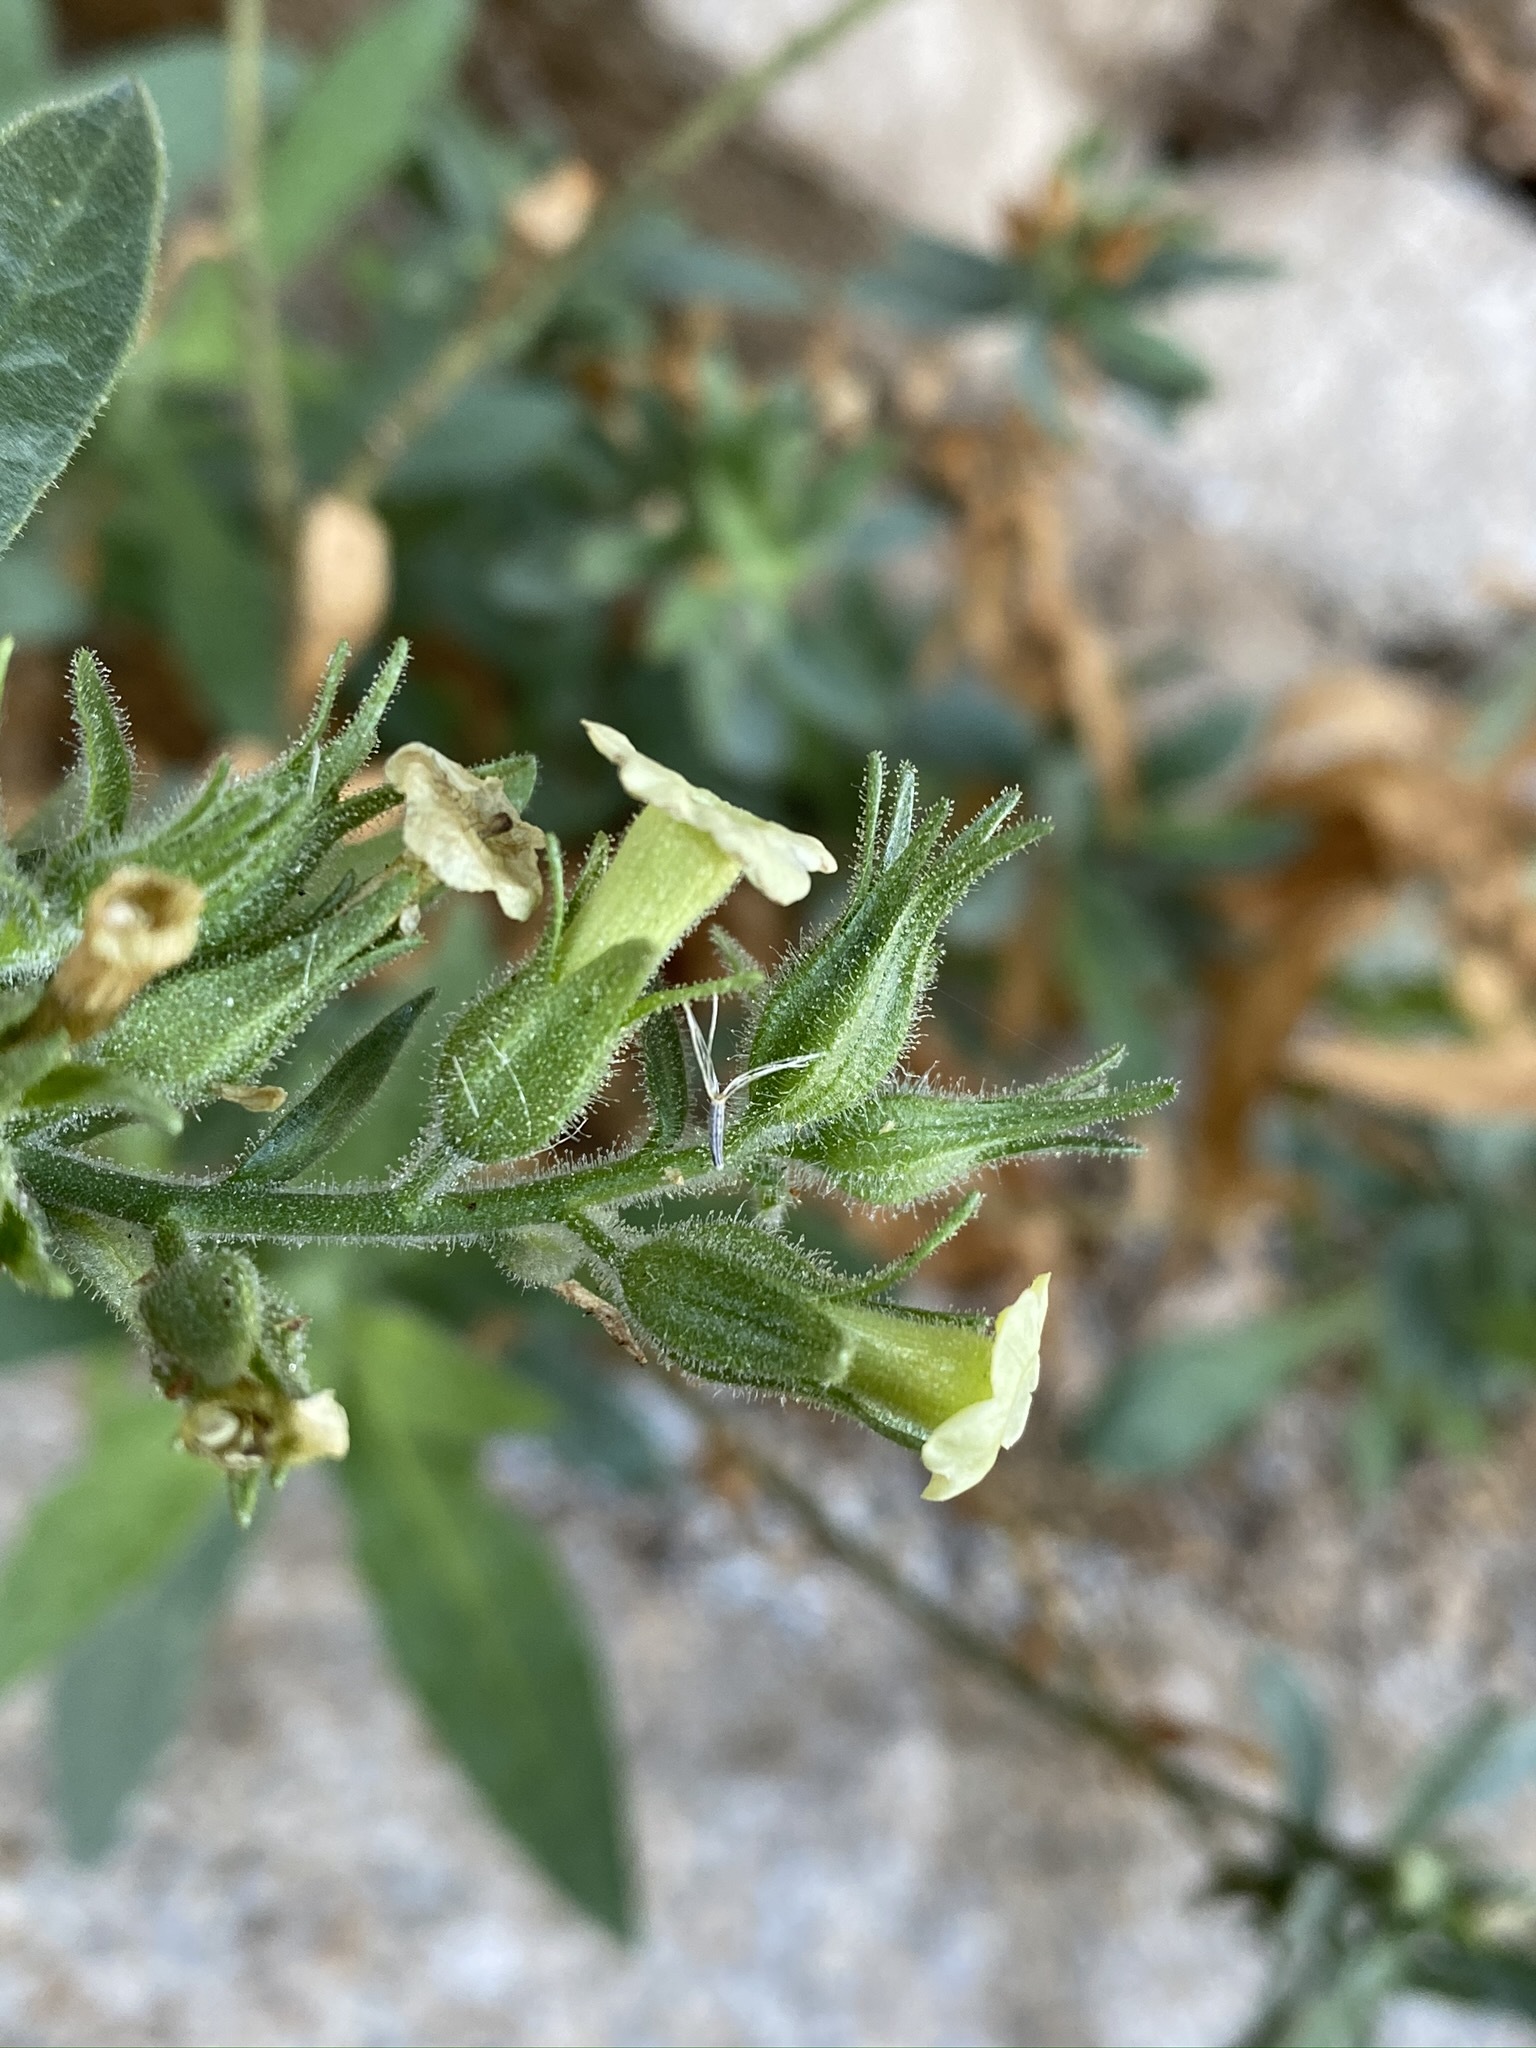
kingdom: Plantae
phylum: Tracheophyta
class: Magnoliopsida
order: Solanales
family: Solanaceae
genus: Nicotiana
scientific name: Nicotiana obtusifolia
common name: Desert tobacco
